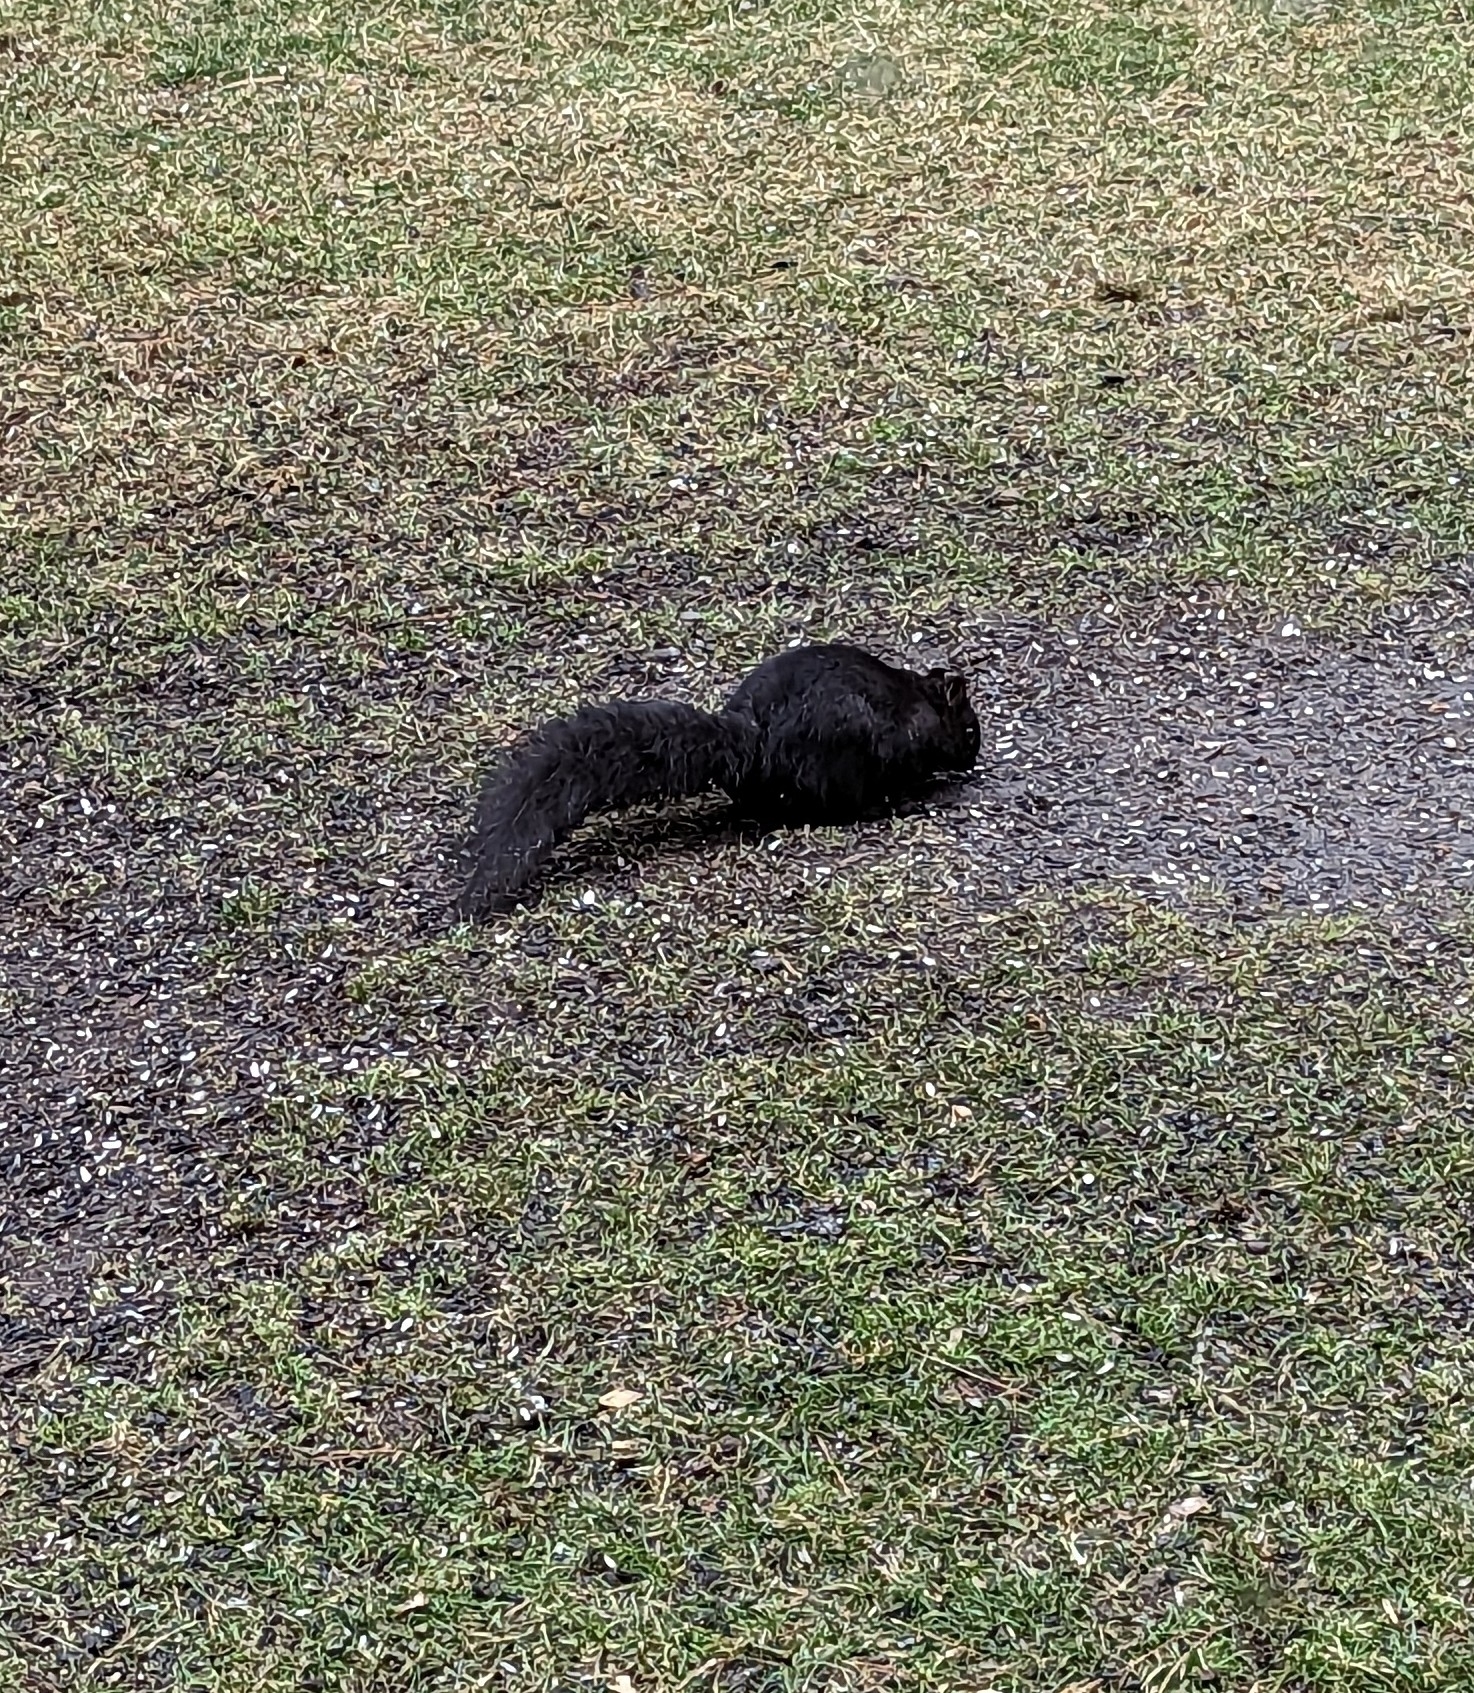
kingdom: Animalia
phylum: Chordata
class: Mammalia
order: Rodentia
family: Sciuridae
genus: Sciurus
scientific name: Sciurus carolinensis
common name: Eastern gray squirrel
